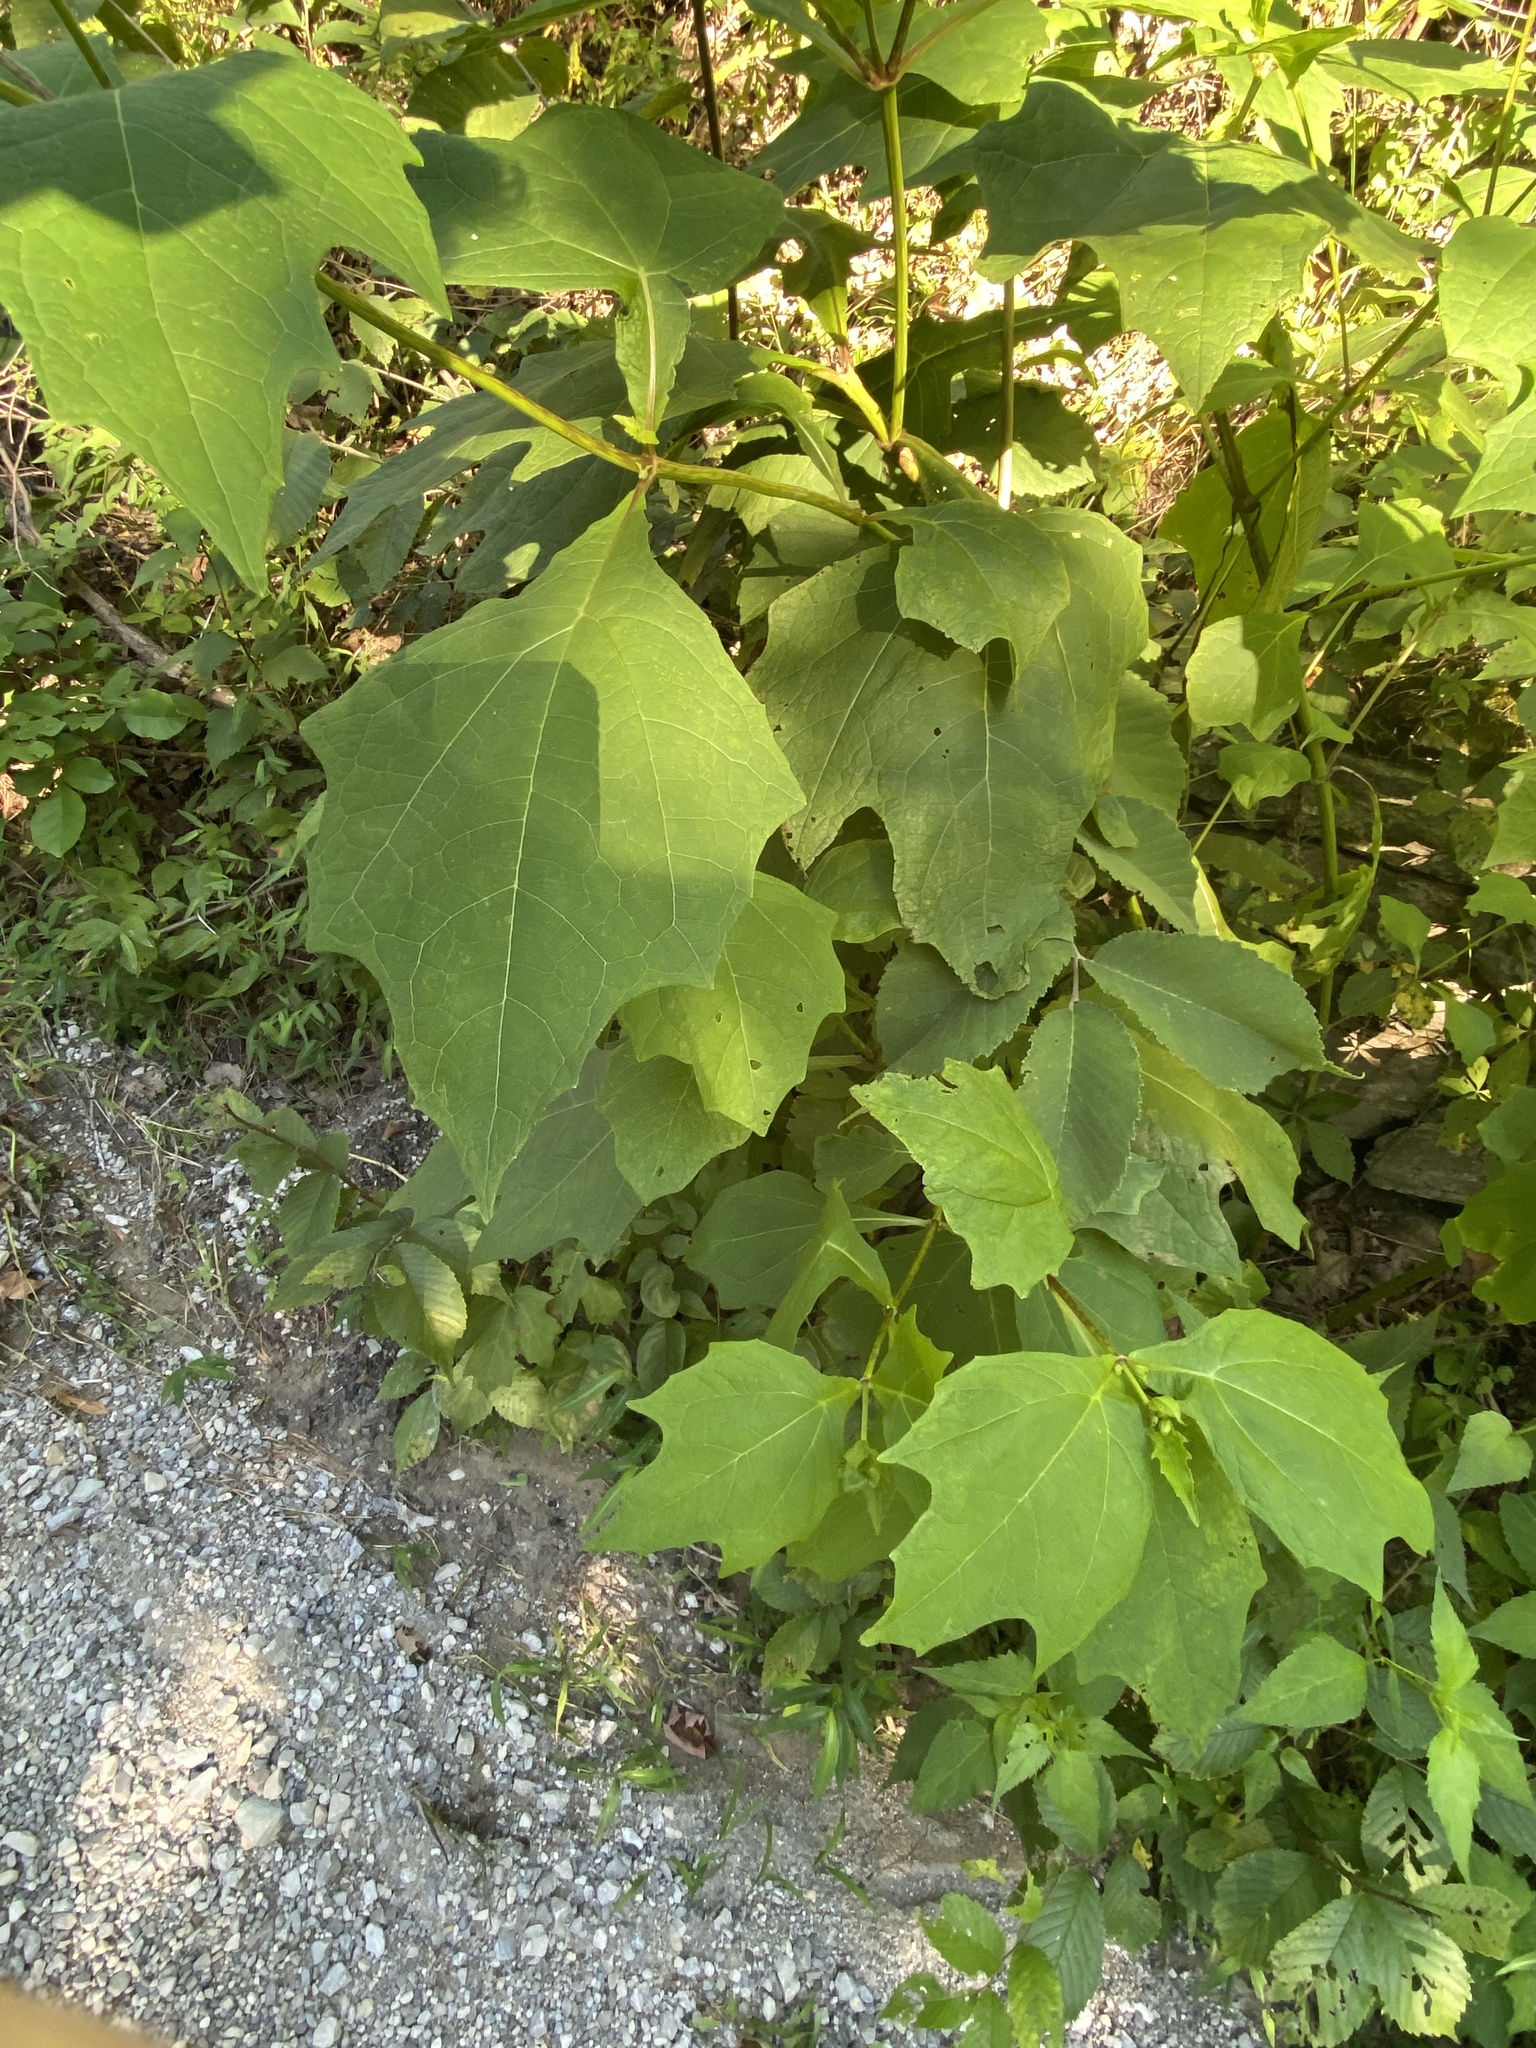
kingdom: Plantae
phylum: Tracheophyta
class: Magnoliopsida
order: Asterales
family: Asteraceae
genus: Smallanthus
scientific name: Smallanthus uvedalia
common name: Bear's-foot
